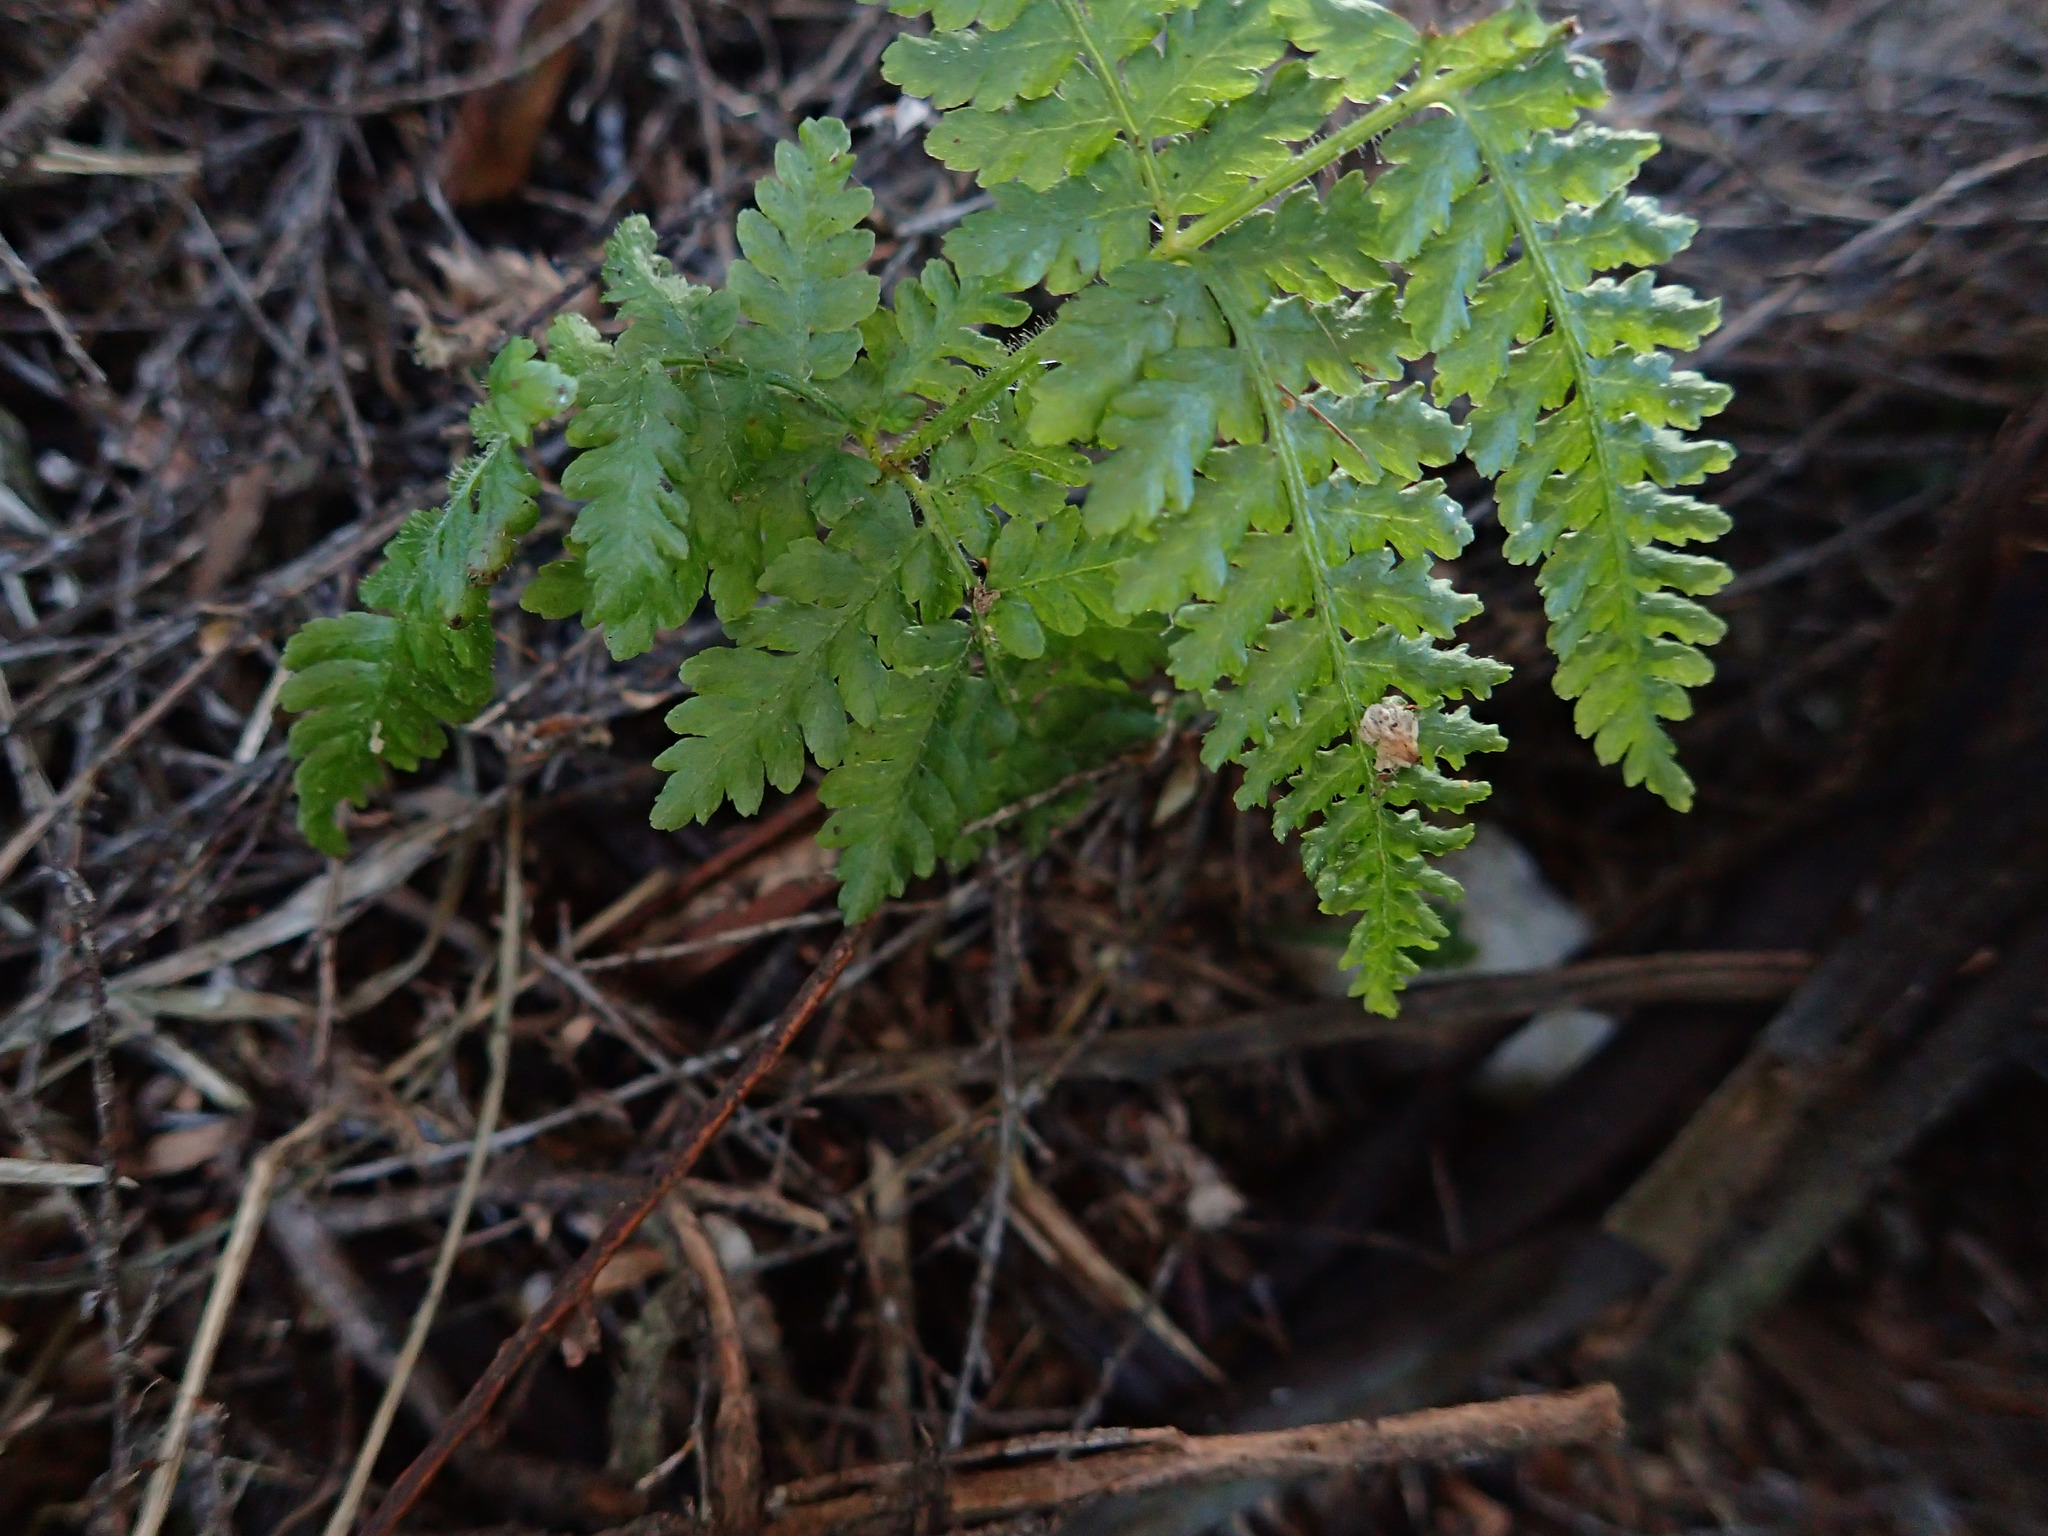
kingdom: Plantae
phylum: Tracheophyta
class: Polypodiopsida
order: Polypodiales
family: Dennstaedtiaceae
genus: Hypolepis
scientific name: Hypolepis ambigua
